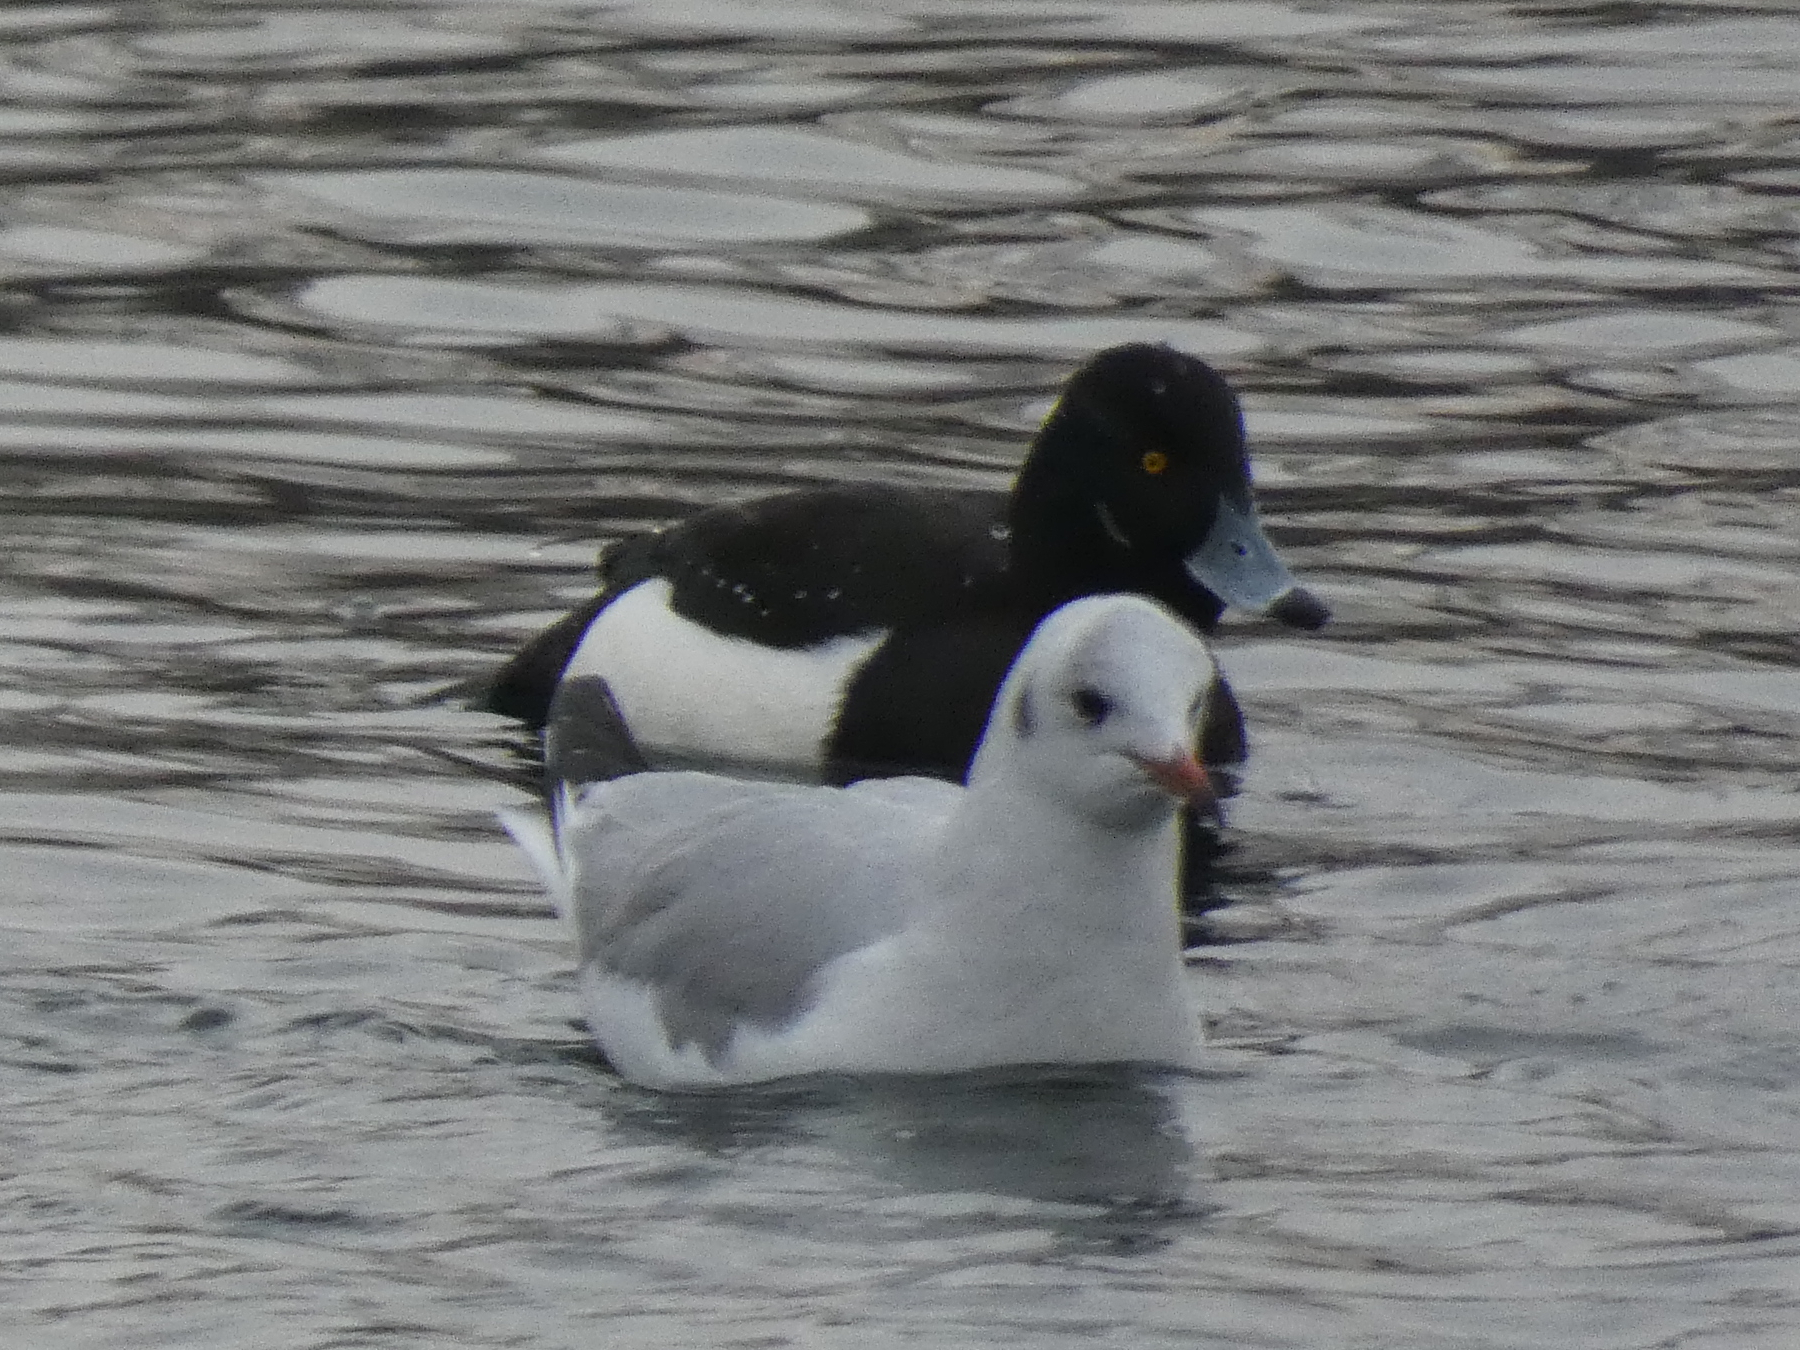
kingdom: Animalia
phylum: Chordata
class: Aves
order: Anseriformes
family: Anatidae
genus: Aythya
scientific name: Aythya fuligula
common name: Tufted duck
